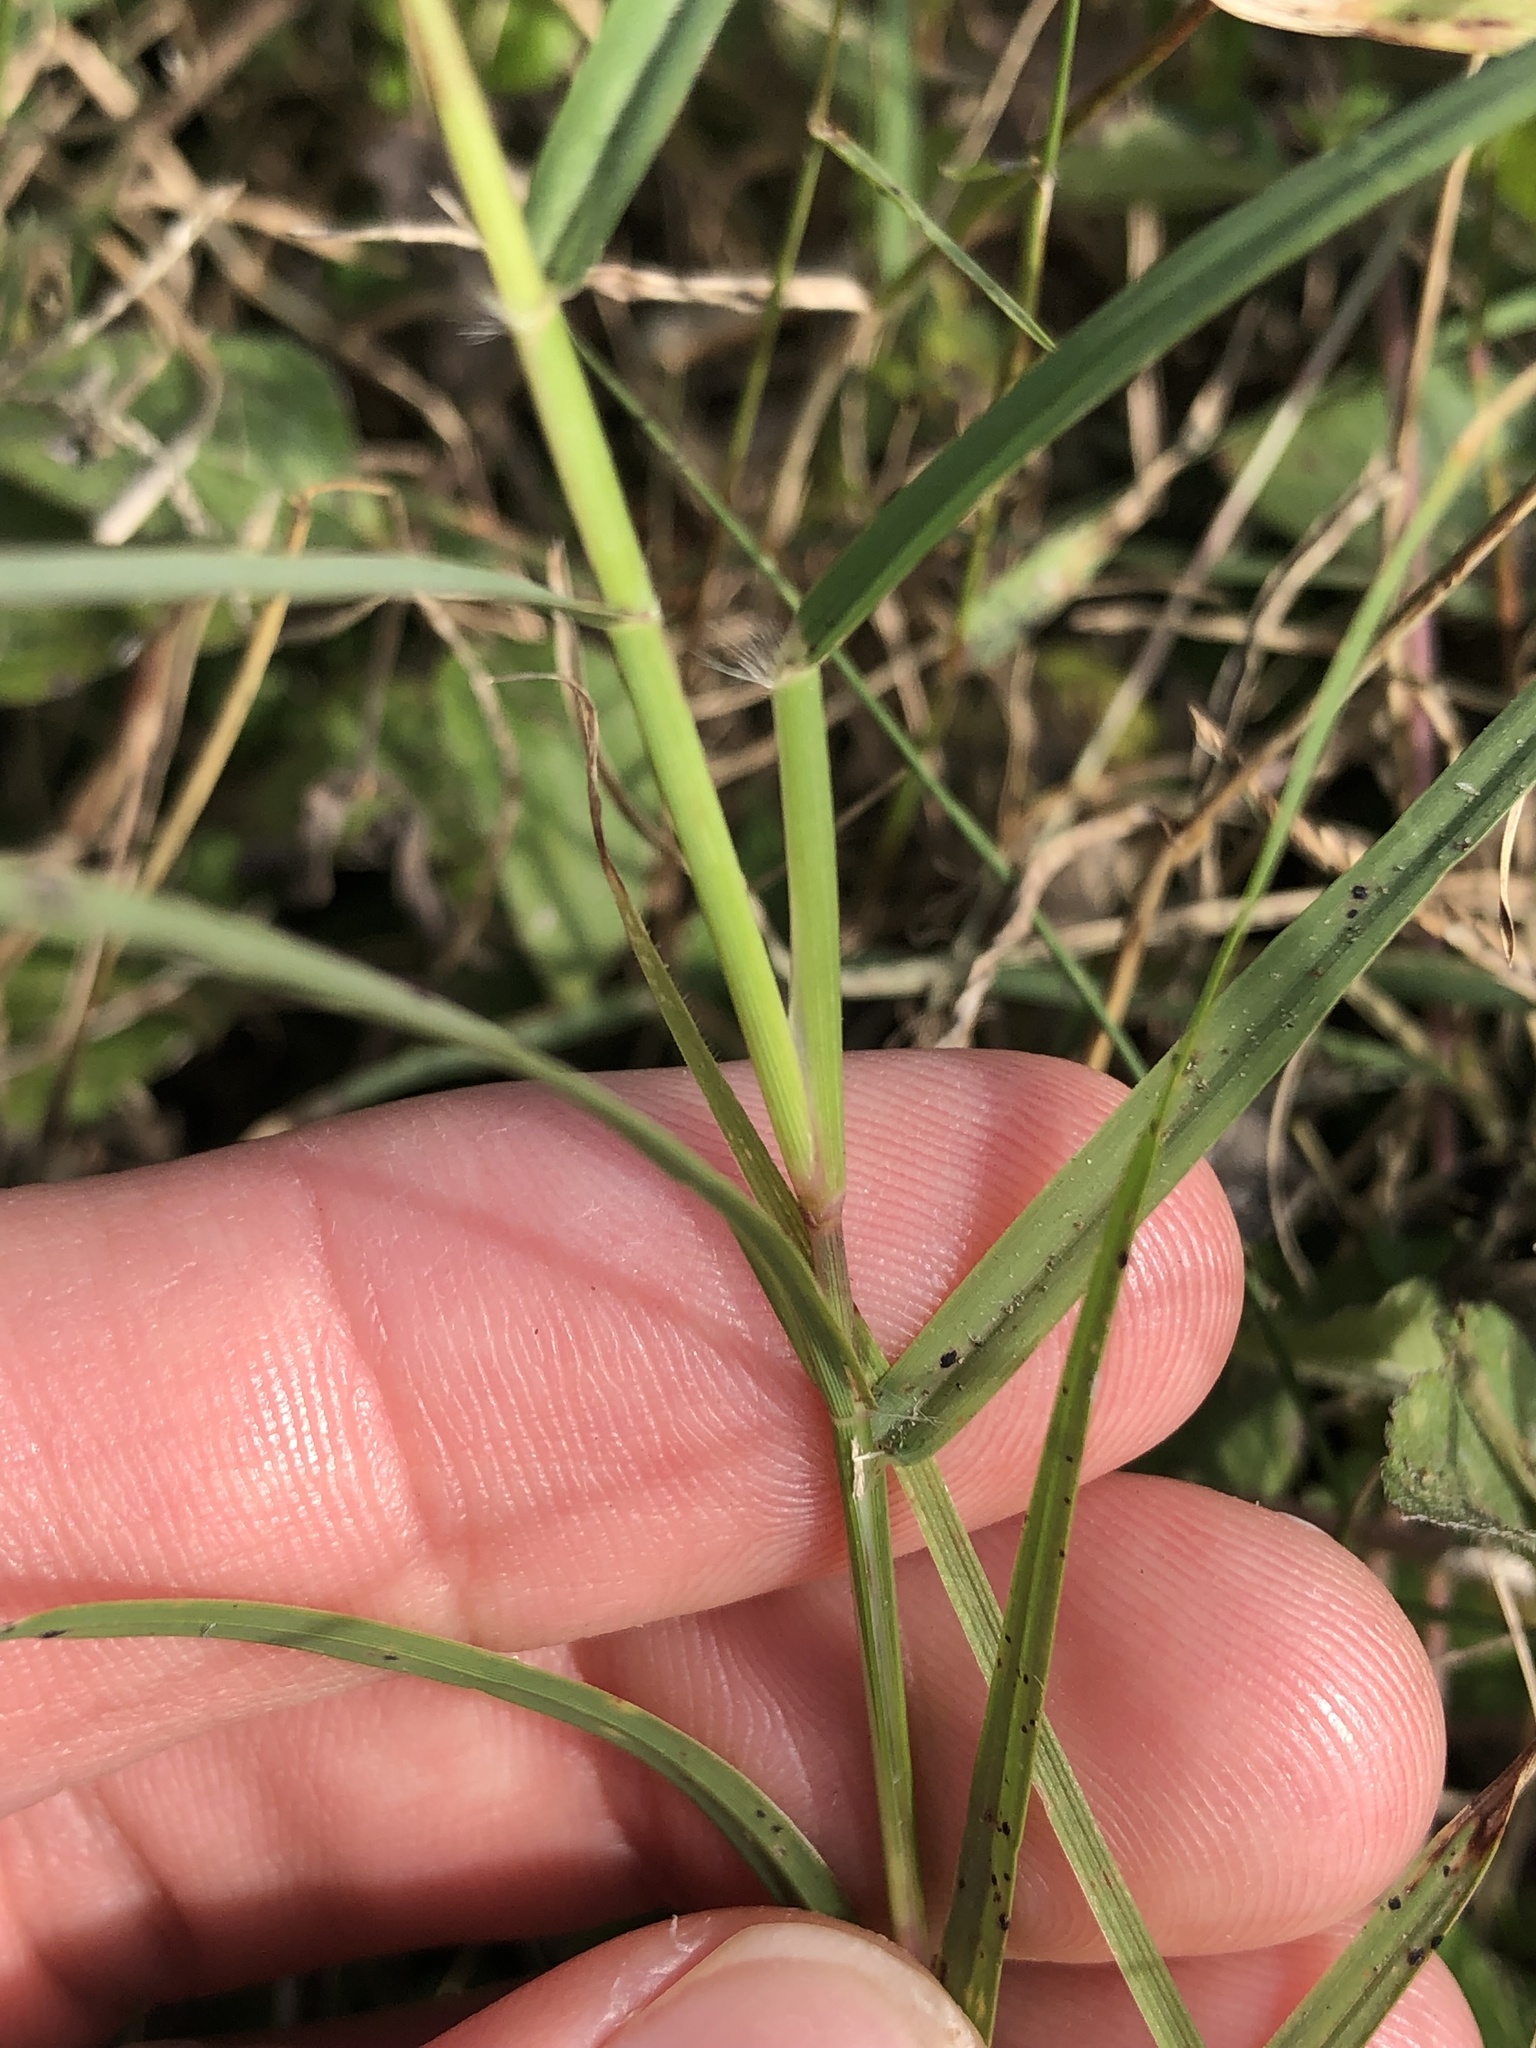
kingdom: Plantae
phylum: Tracheophyta
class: Liliopsida
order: Poales
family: Poaceae
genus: Cynodon
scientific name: Cynodon dactylon
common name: Bermuda grass
